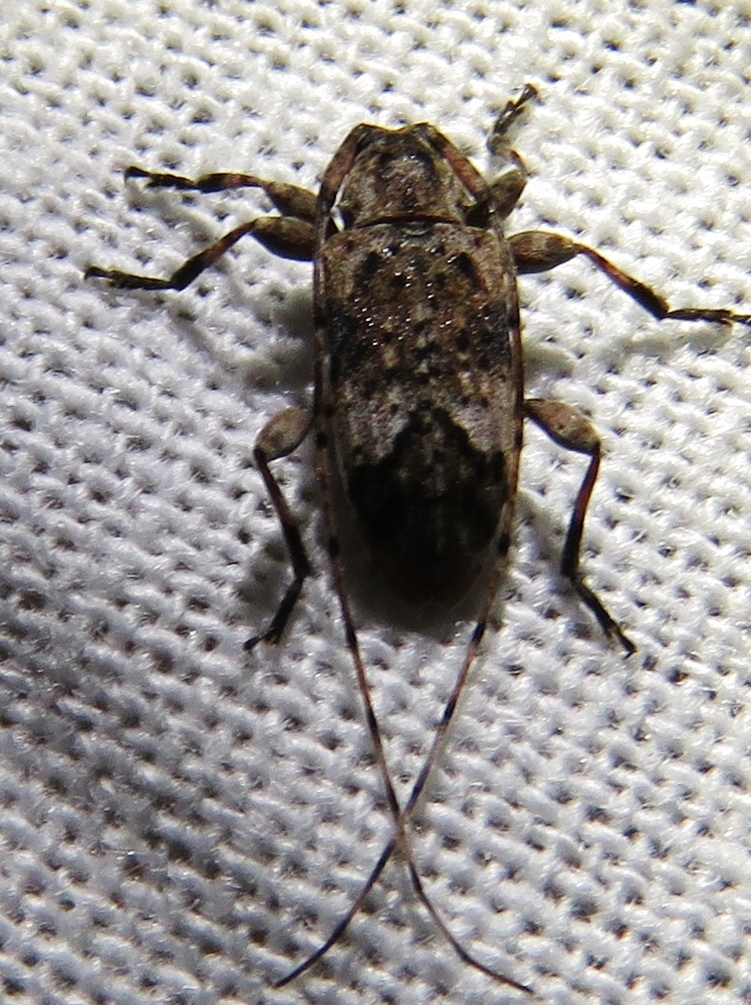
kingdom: Animalia
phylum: Arthropoda
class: Insecta
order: Coleoptera
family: Cerambycidae
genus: Sternidius
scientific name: Sternidius mimeticus
